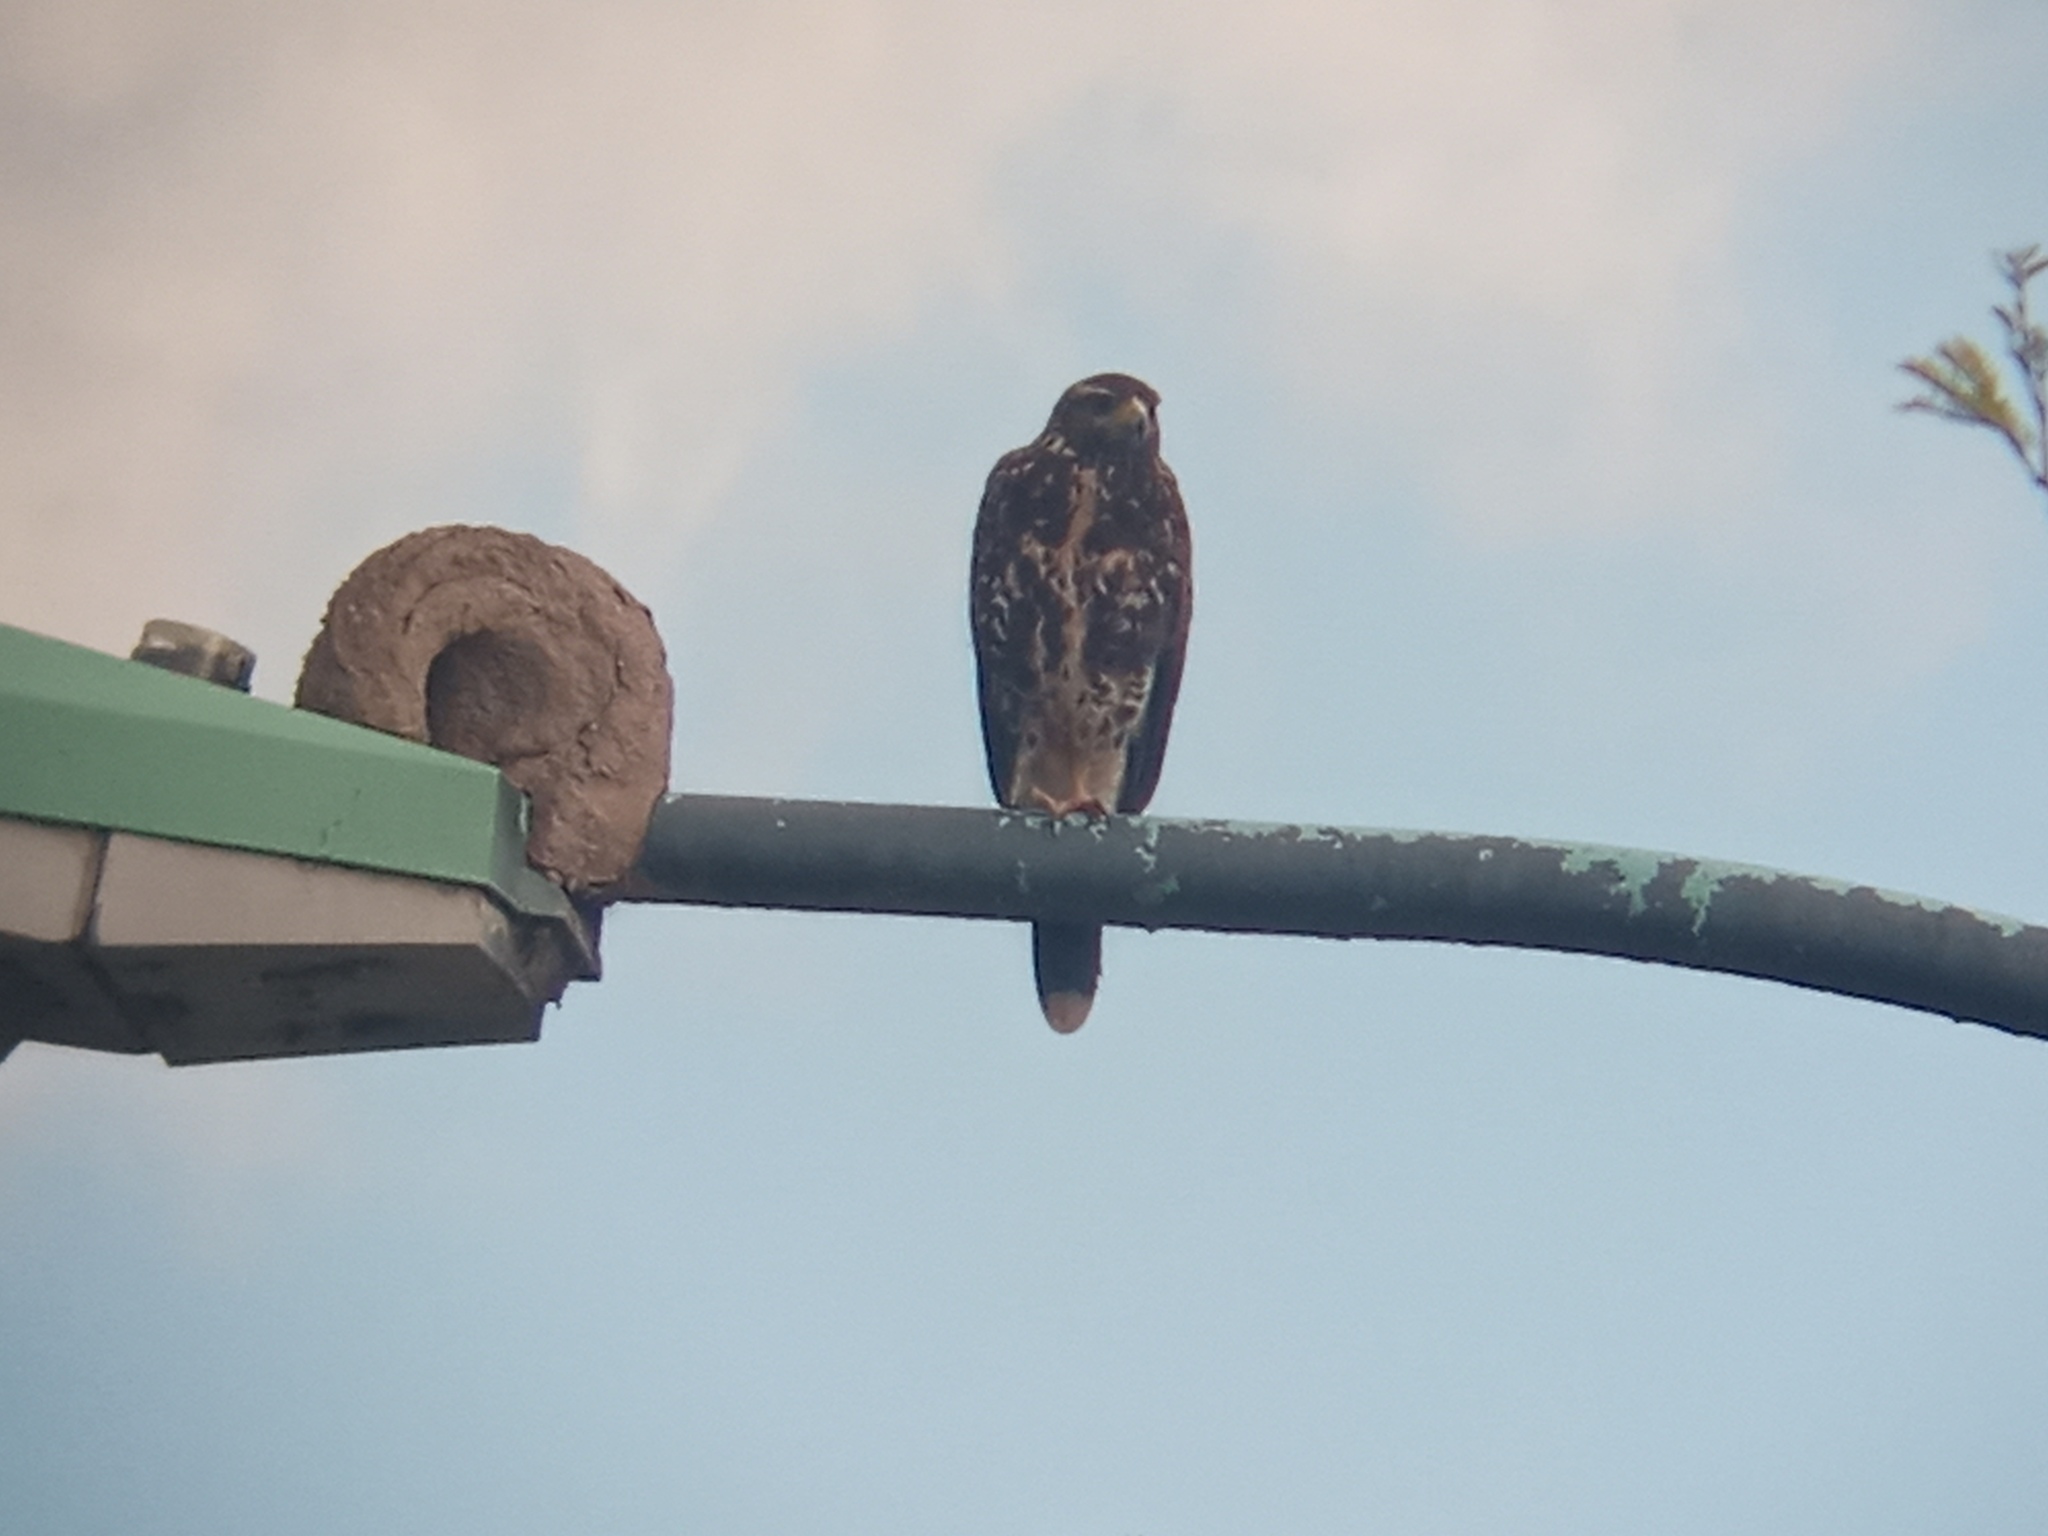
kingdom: Animalia
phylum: Chordata
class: Aves
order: Accipitriformes
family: Accipitridae
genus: Parabuteo
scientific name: Parabuteo unicinctus
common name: Harris's hawk
